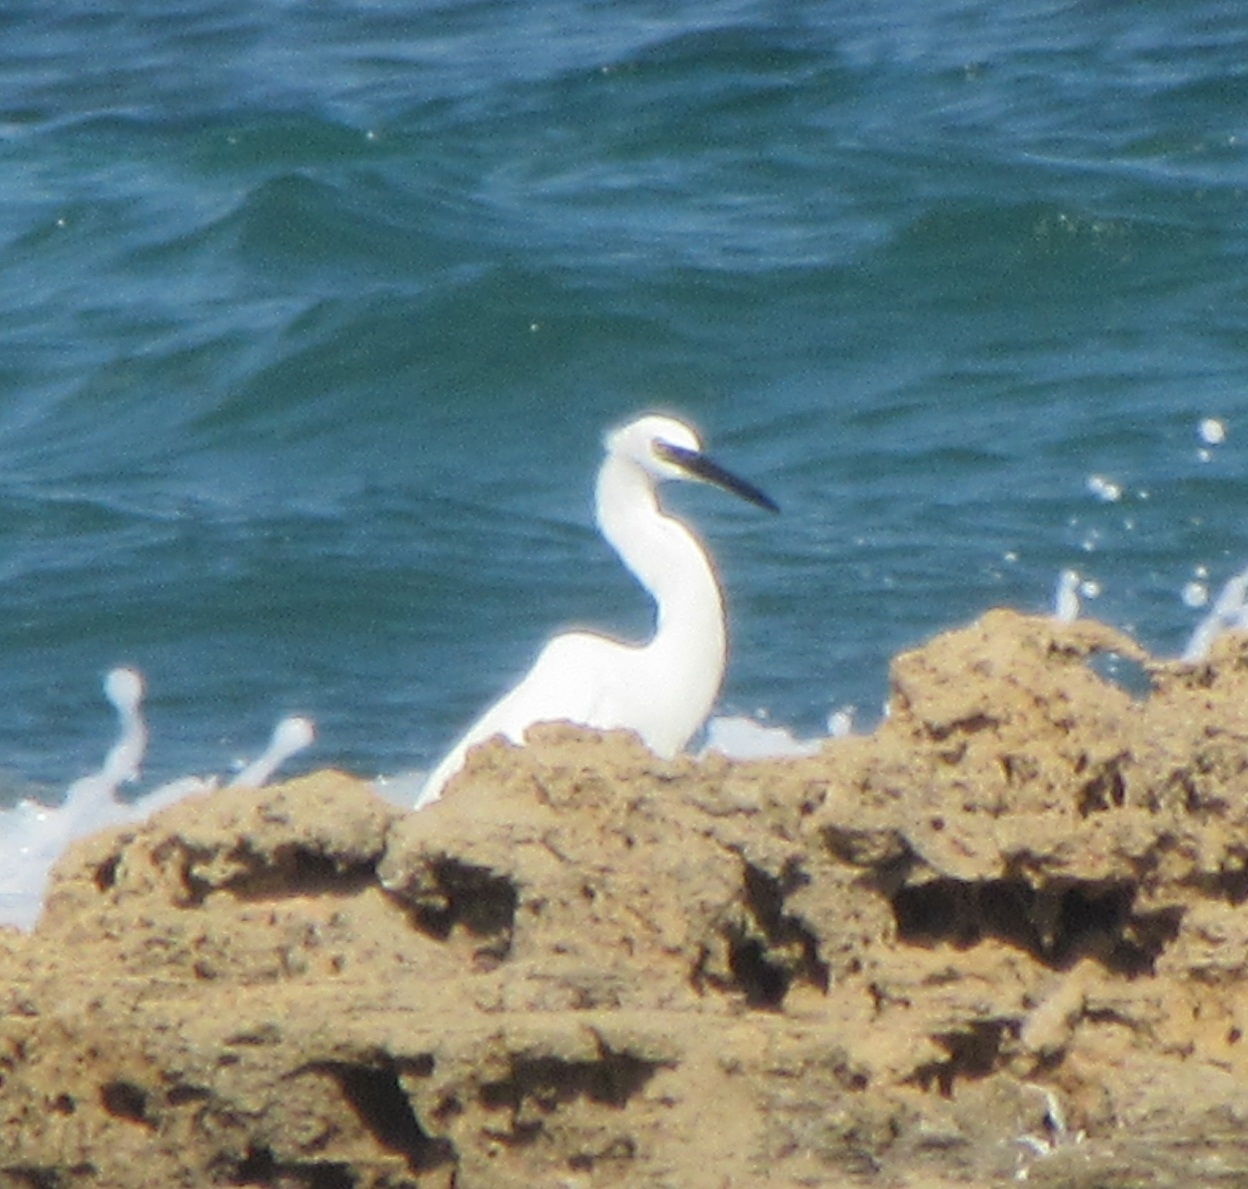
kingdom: Animalia
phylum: Chordata
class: Aves
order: Pelecaniformes
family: Ardeidae
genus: Egretta
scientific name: Egretta garzetta
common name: Little egret
